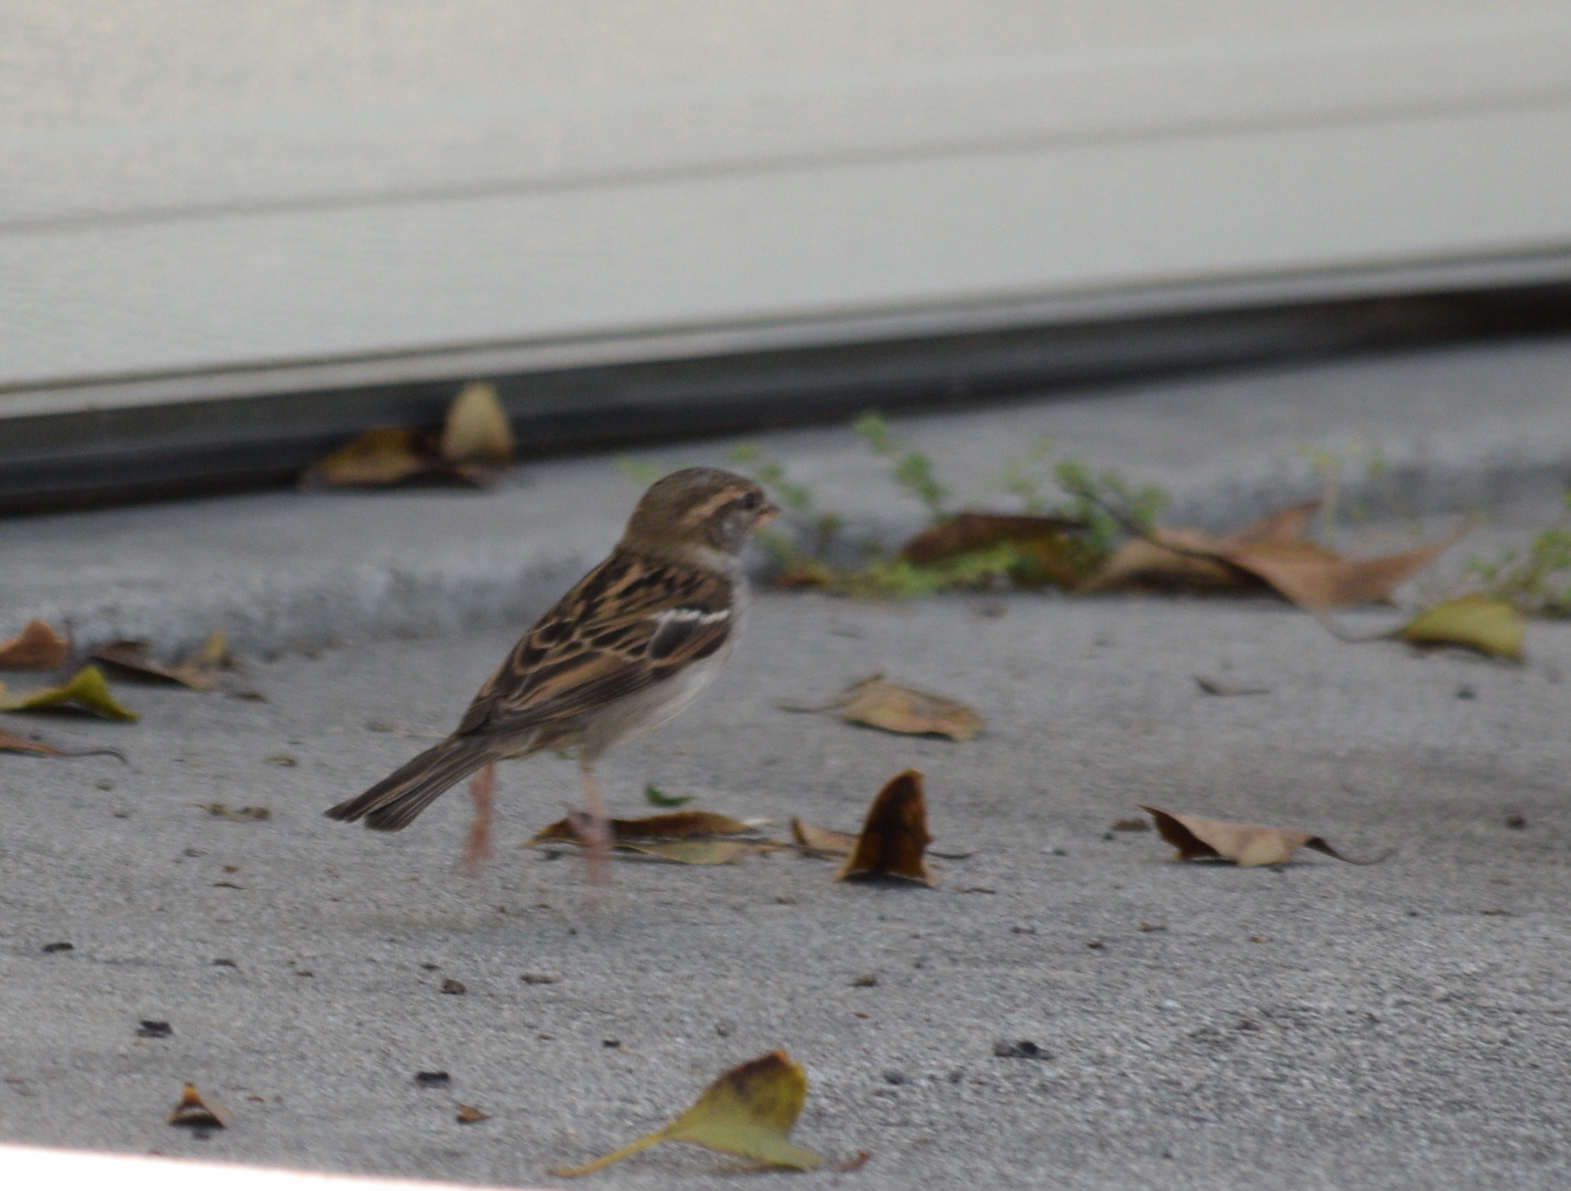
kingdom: Animalia
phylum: Chordata
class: Aves
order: Passeriformes
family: Passeridae
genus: Passer
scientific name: Passer domesticus
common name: House sparrow
